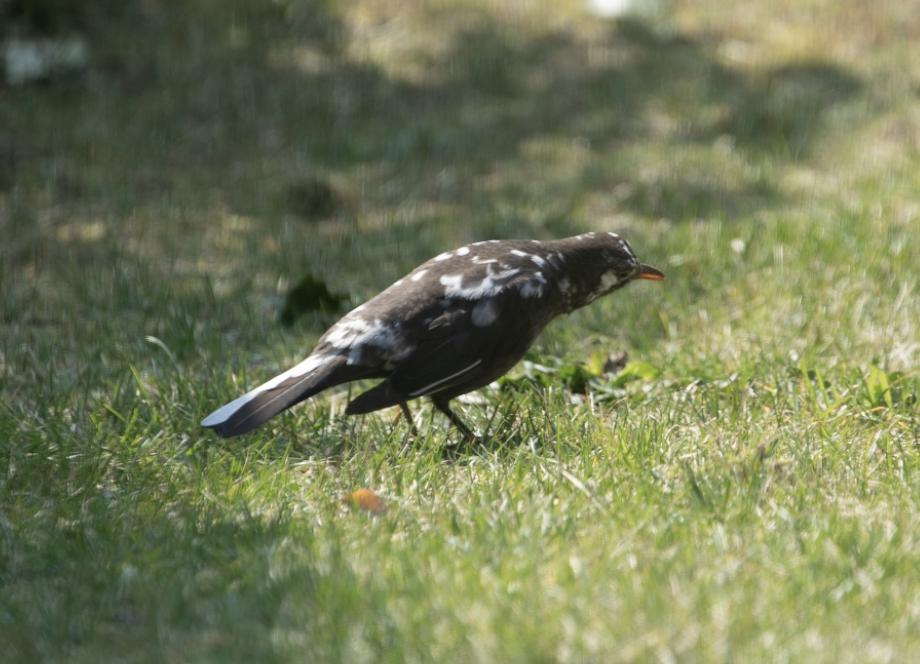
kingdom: Animalia
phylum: Chordata
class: Aves
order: Passeriformes
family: Turdidae
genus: Turdus
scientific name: Turdus merula
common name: Common blackbird
